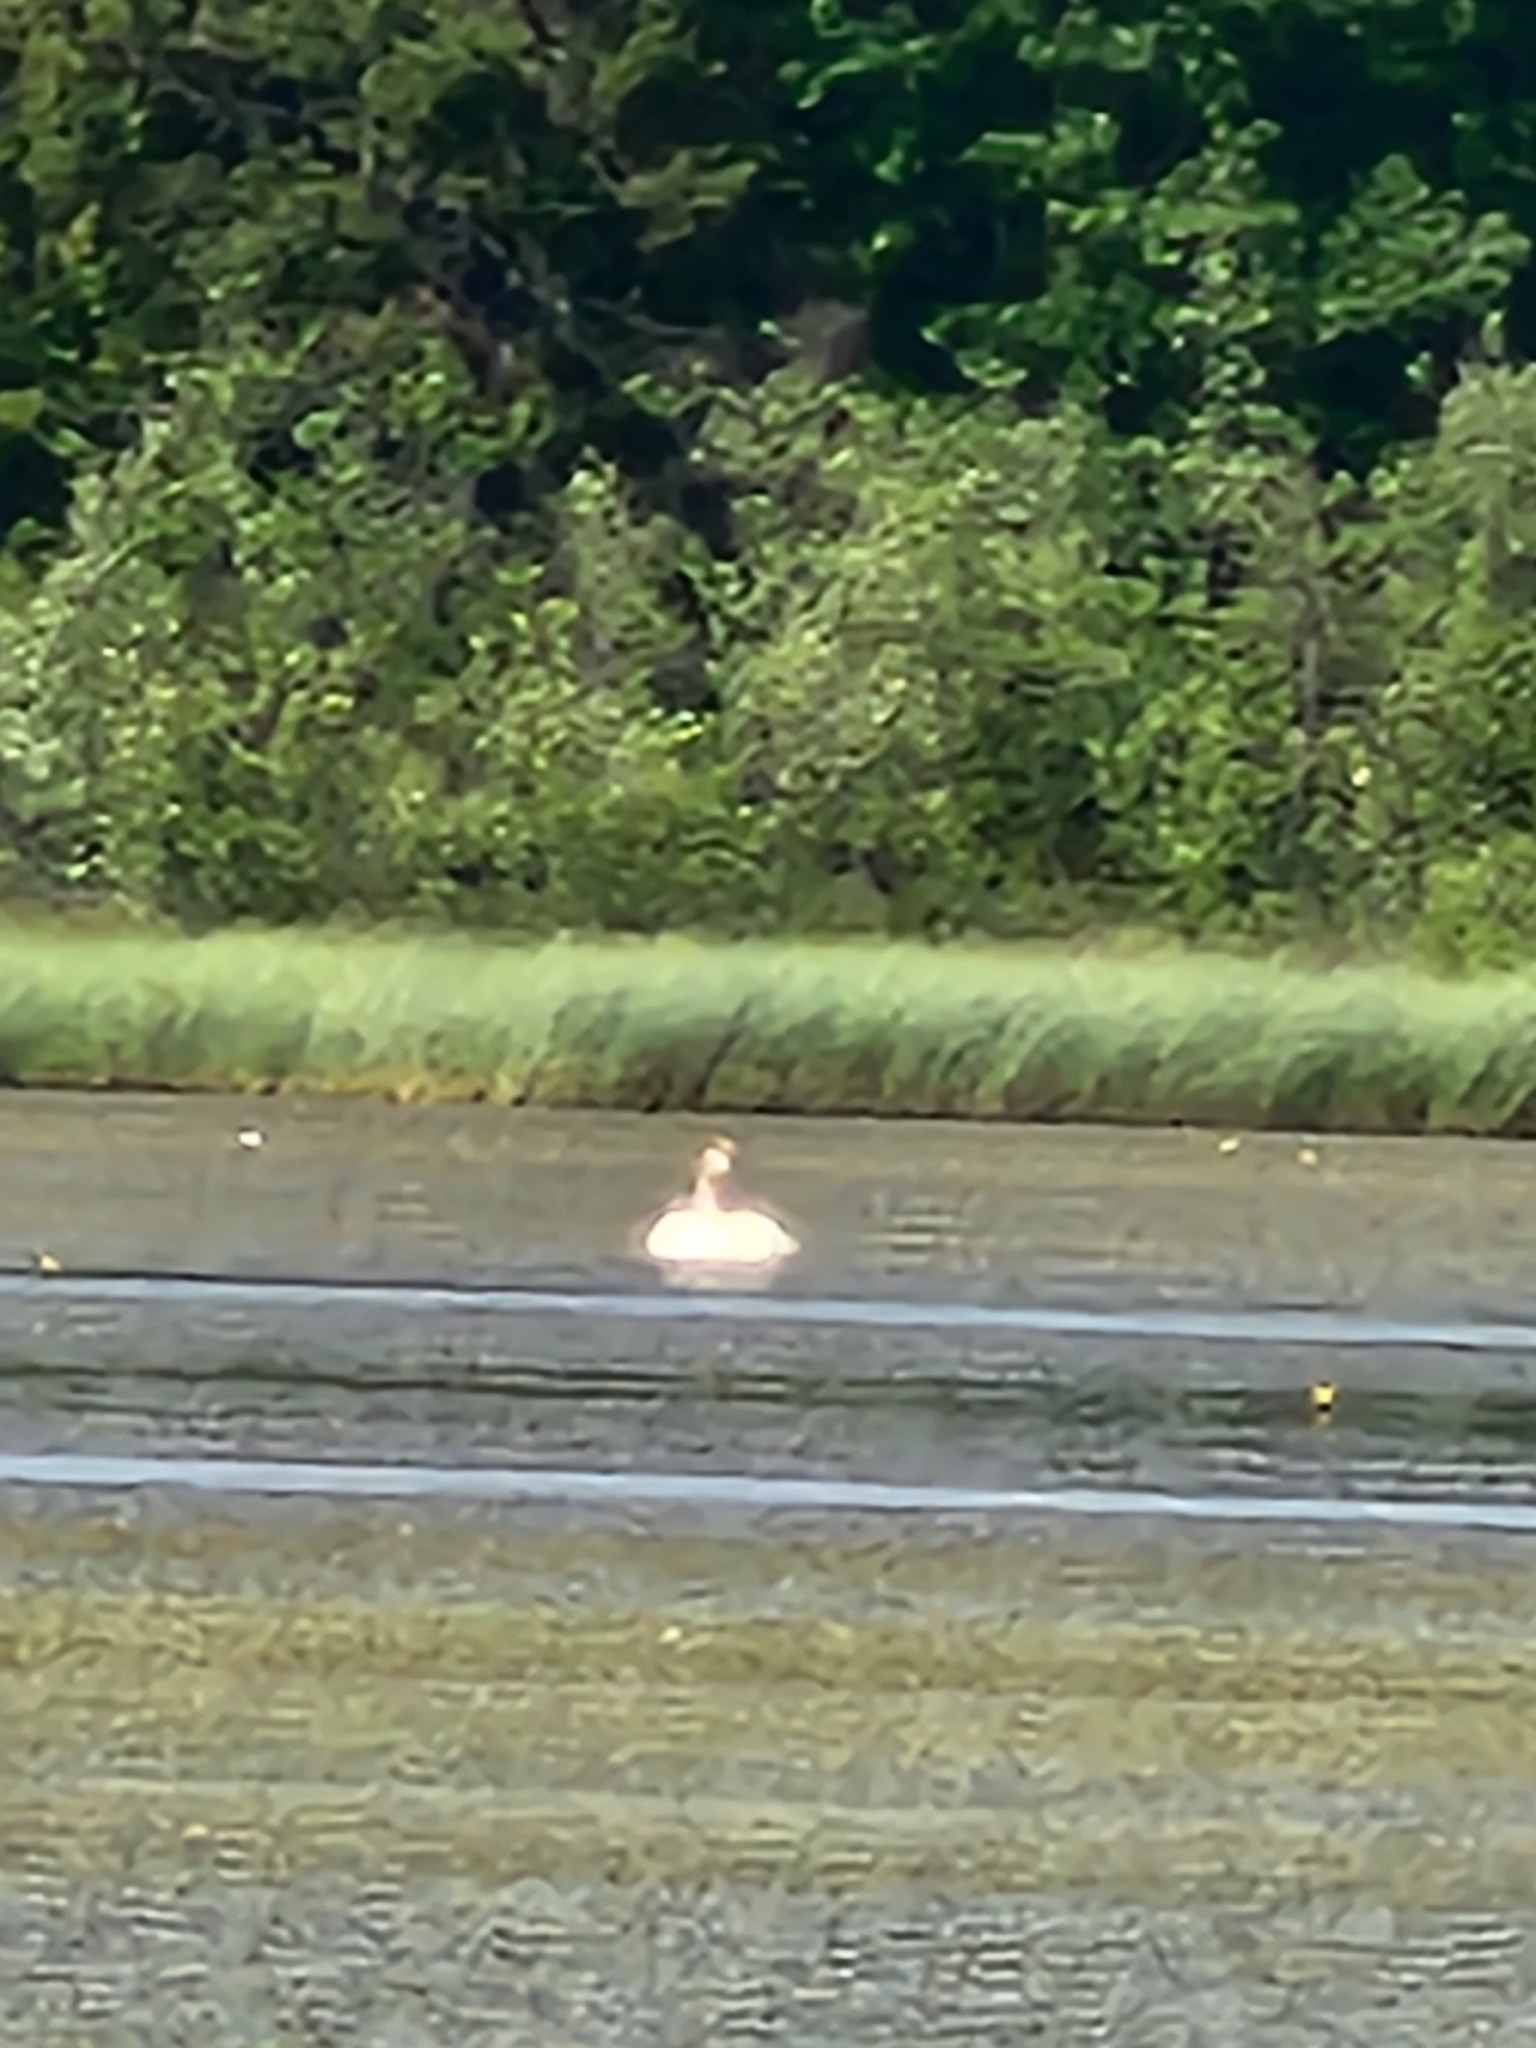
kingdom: Animalia
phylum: Chordata
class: Aves
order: Anseriformes
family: Anatidae
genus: Cygnus
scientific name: Cygnus buccinator
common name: Trumpeter swan
